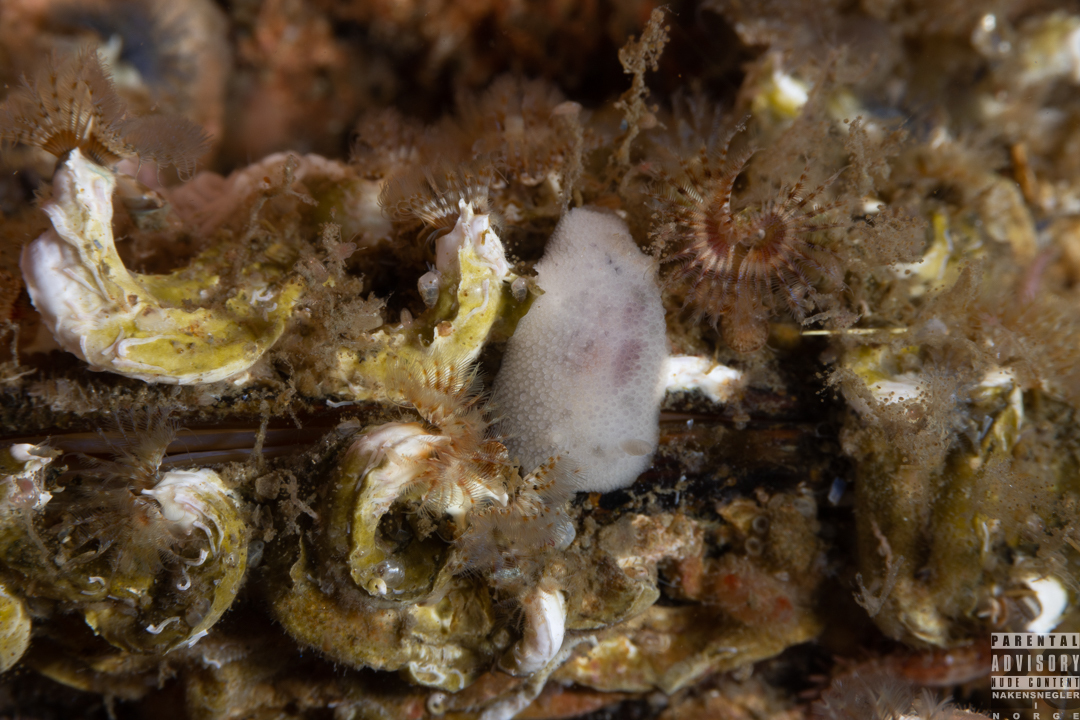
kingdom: Animalia
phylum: Mollusca
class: Gastropoda
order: Nudibranchia
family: Dorididae
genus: Doris
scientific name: Doris pseudoargus
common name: Sea lemon
